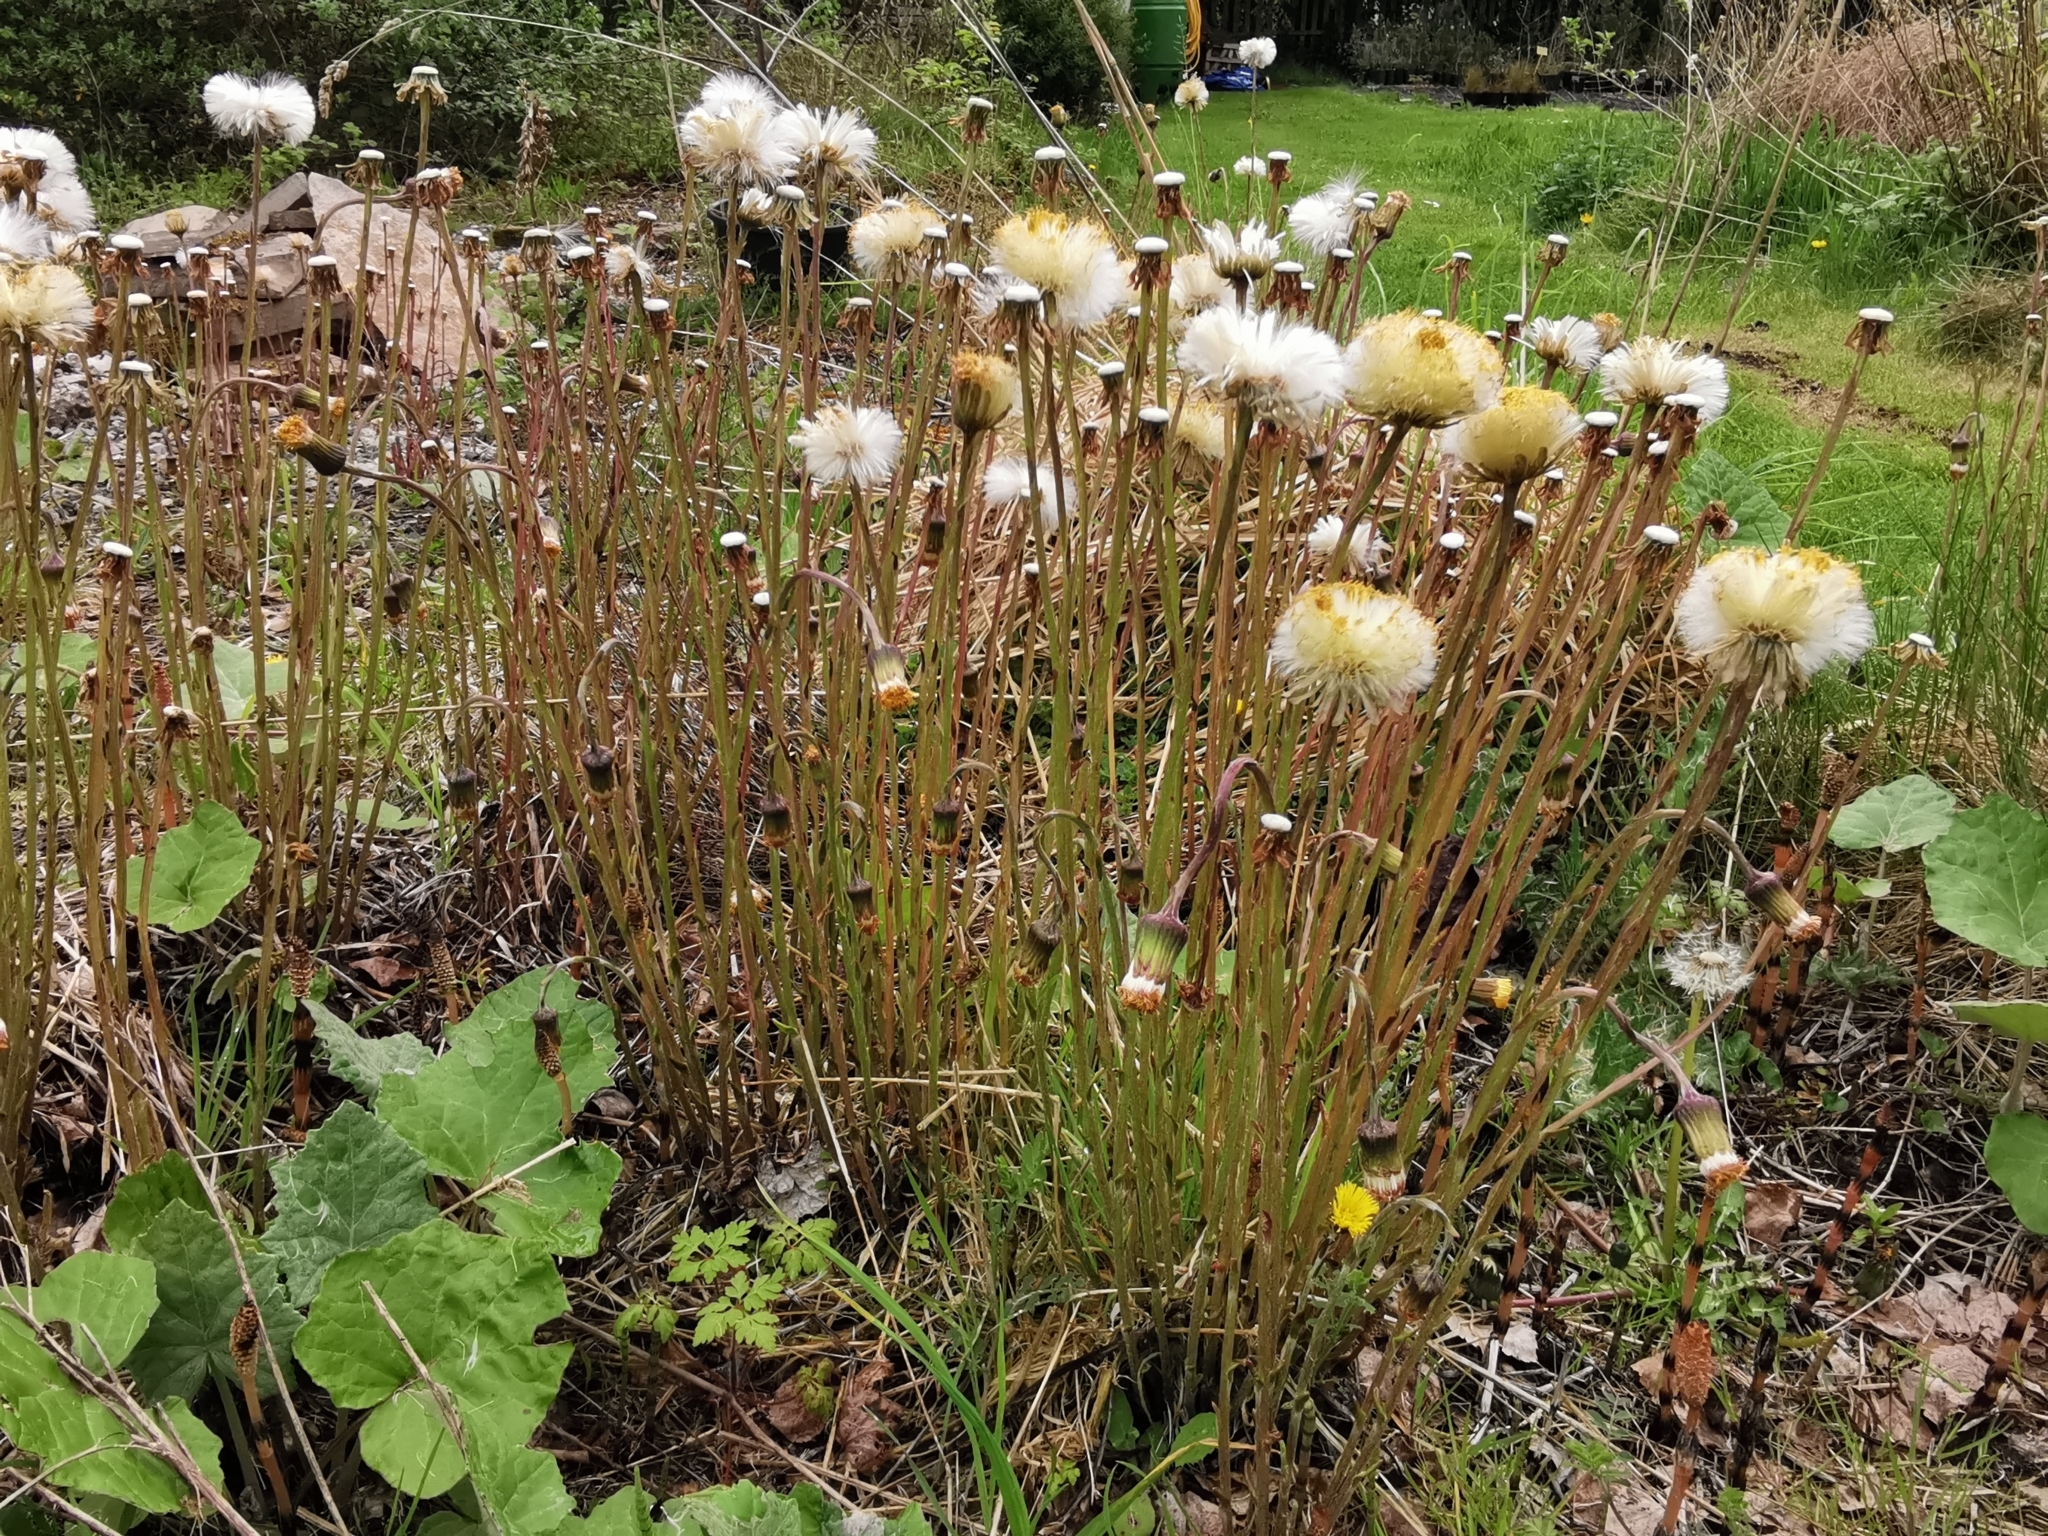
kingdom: Plantae
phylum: Tracheophyta
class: Magnoliopsida
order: Asterales
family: Asteraceae
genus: Tussilago
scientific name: Tussilago farfara
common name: Coltsfoot
